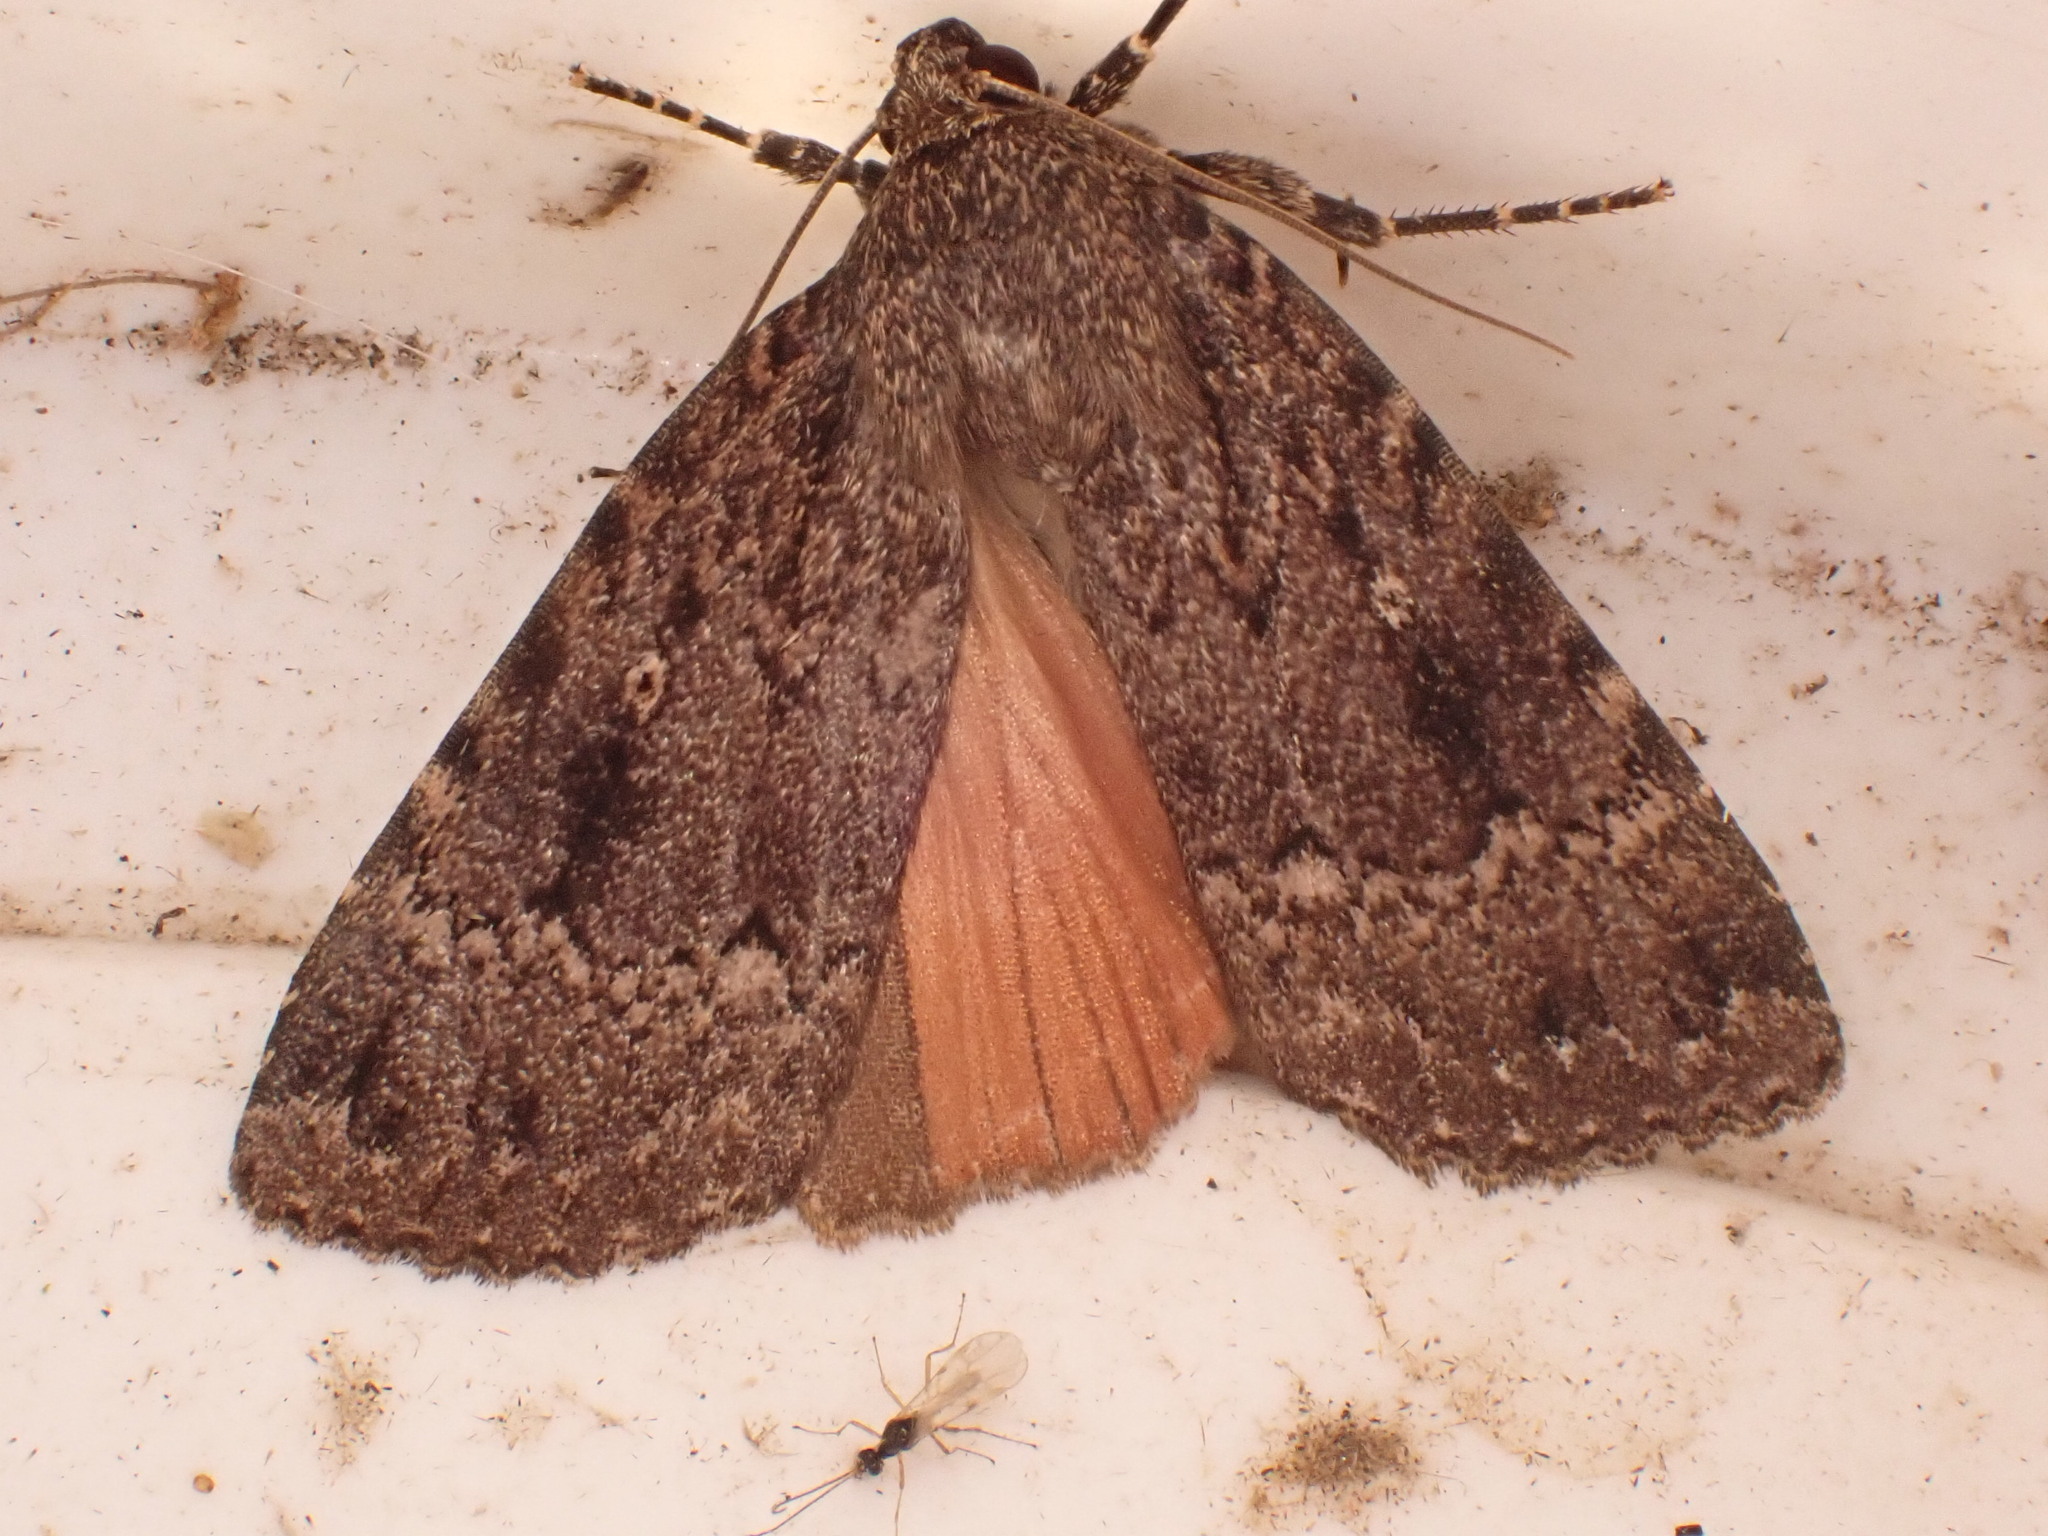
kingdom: Animalia
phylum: Arthropoda
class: Insecta
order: Lepidoptera
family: Noctuidae
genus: Amphipyra
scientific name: Amphipyra pyramidea
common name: Copper underwing
